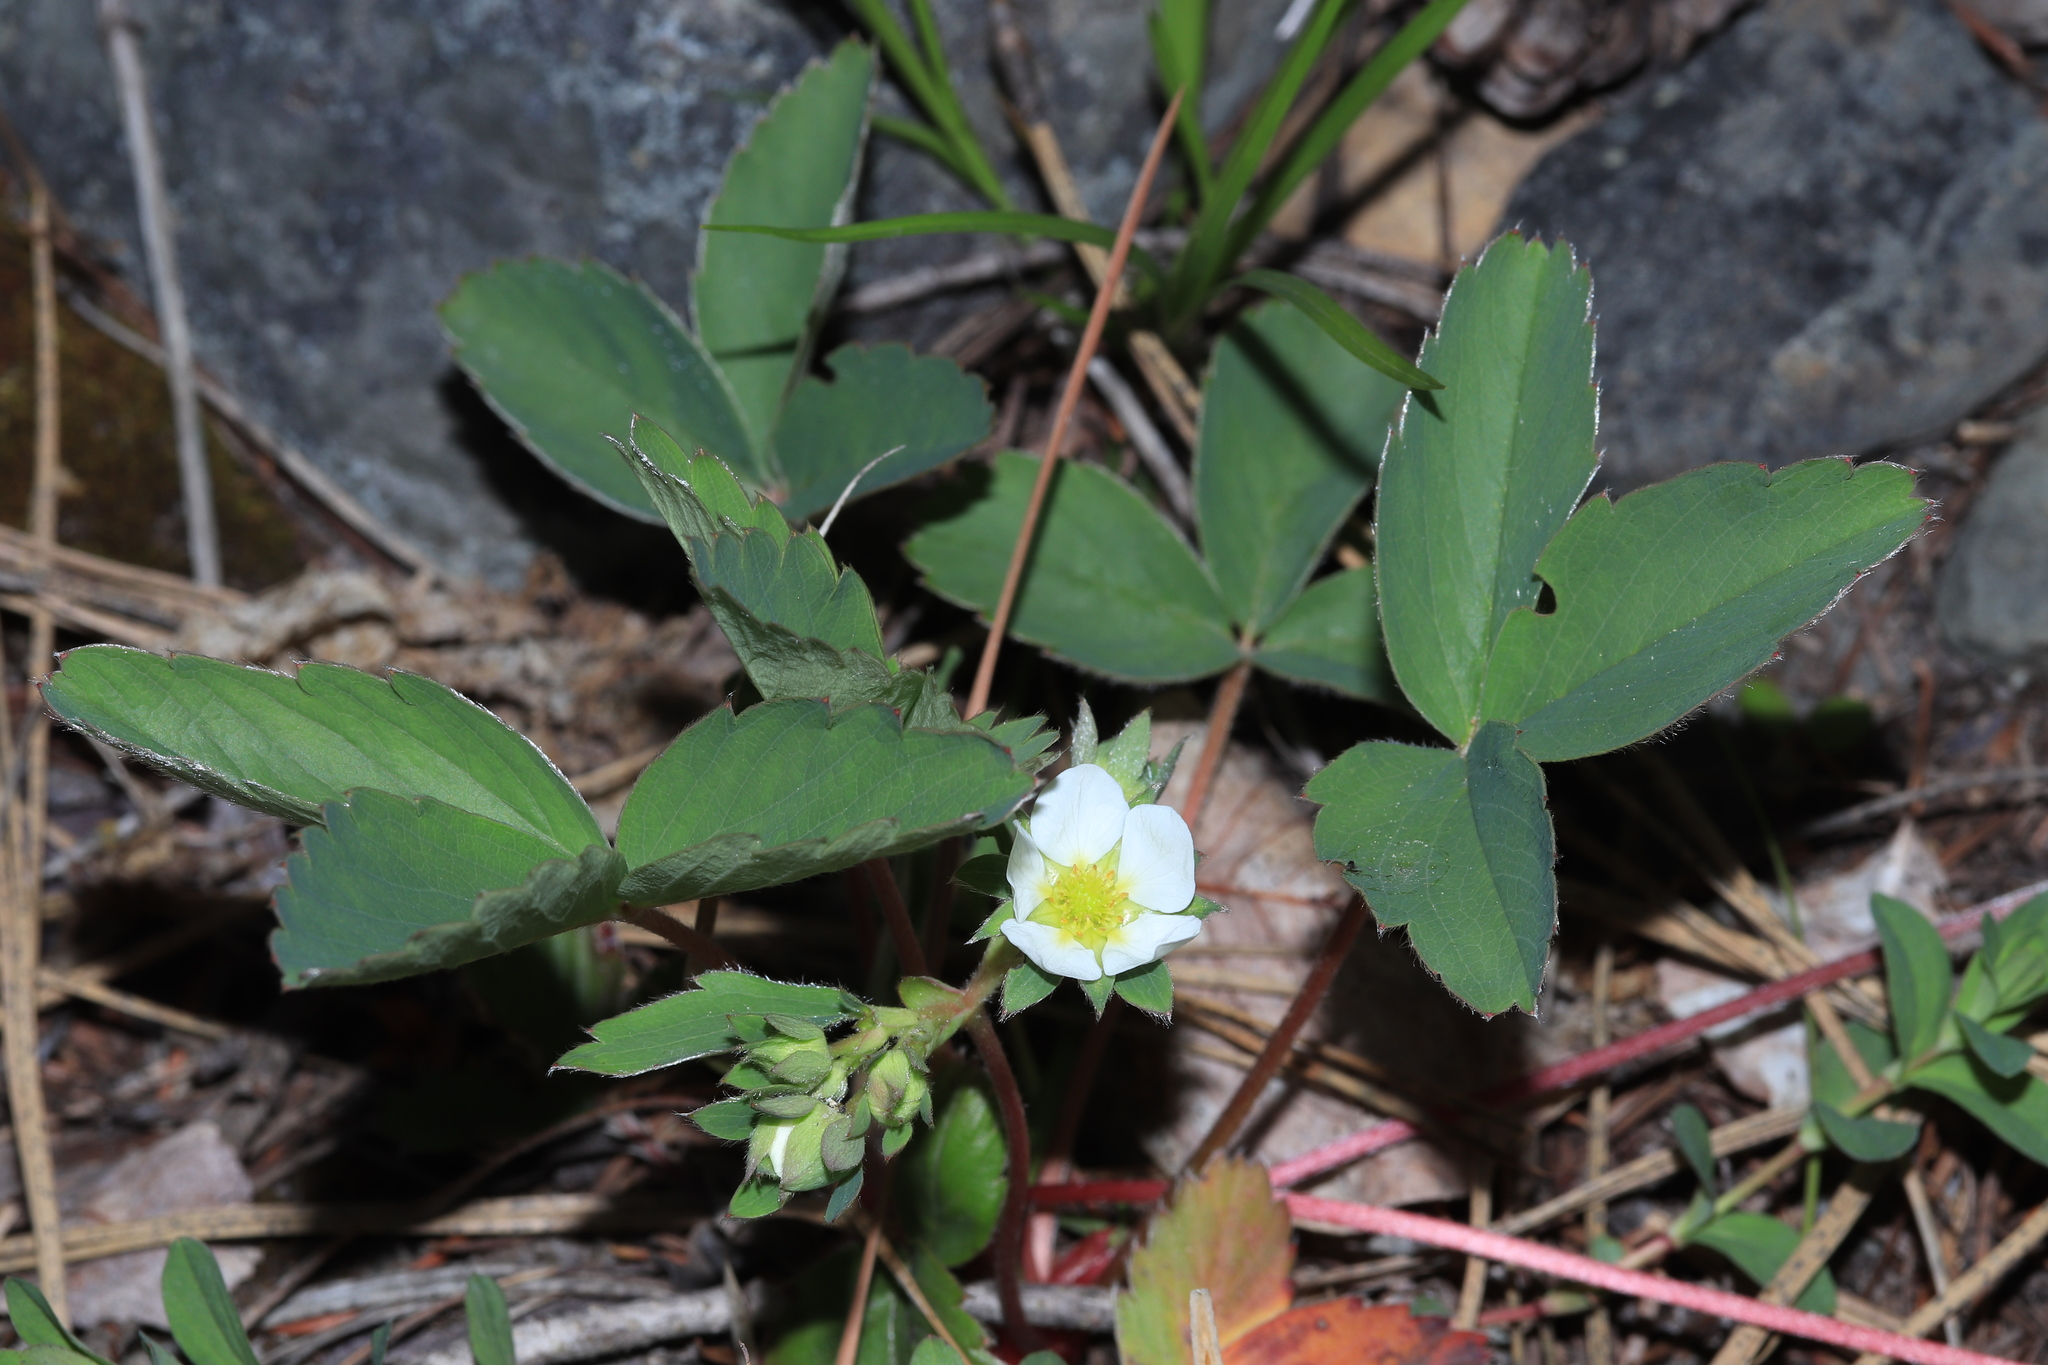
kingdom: Plantae
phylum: Tracheophyta
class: Magnoliopsida
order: Rosales
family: Rosaceae
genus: Fragaria
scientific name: Fragaria virginiana
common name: Thickleaved wild strawberry
